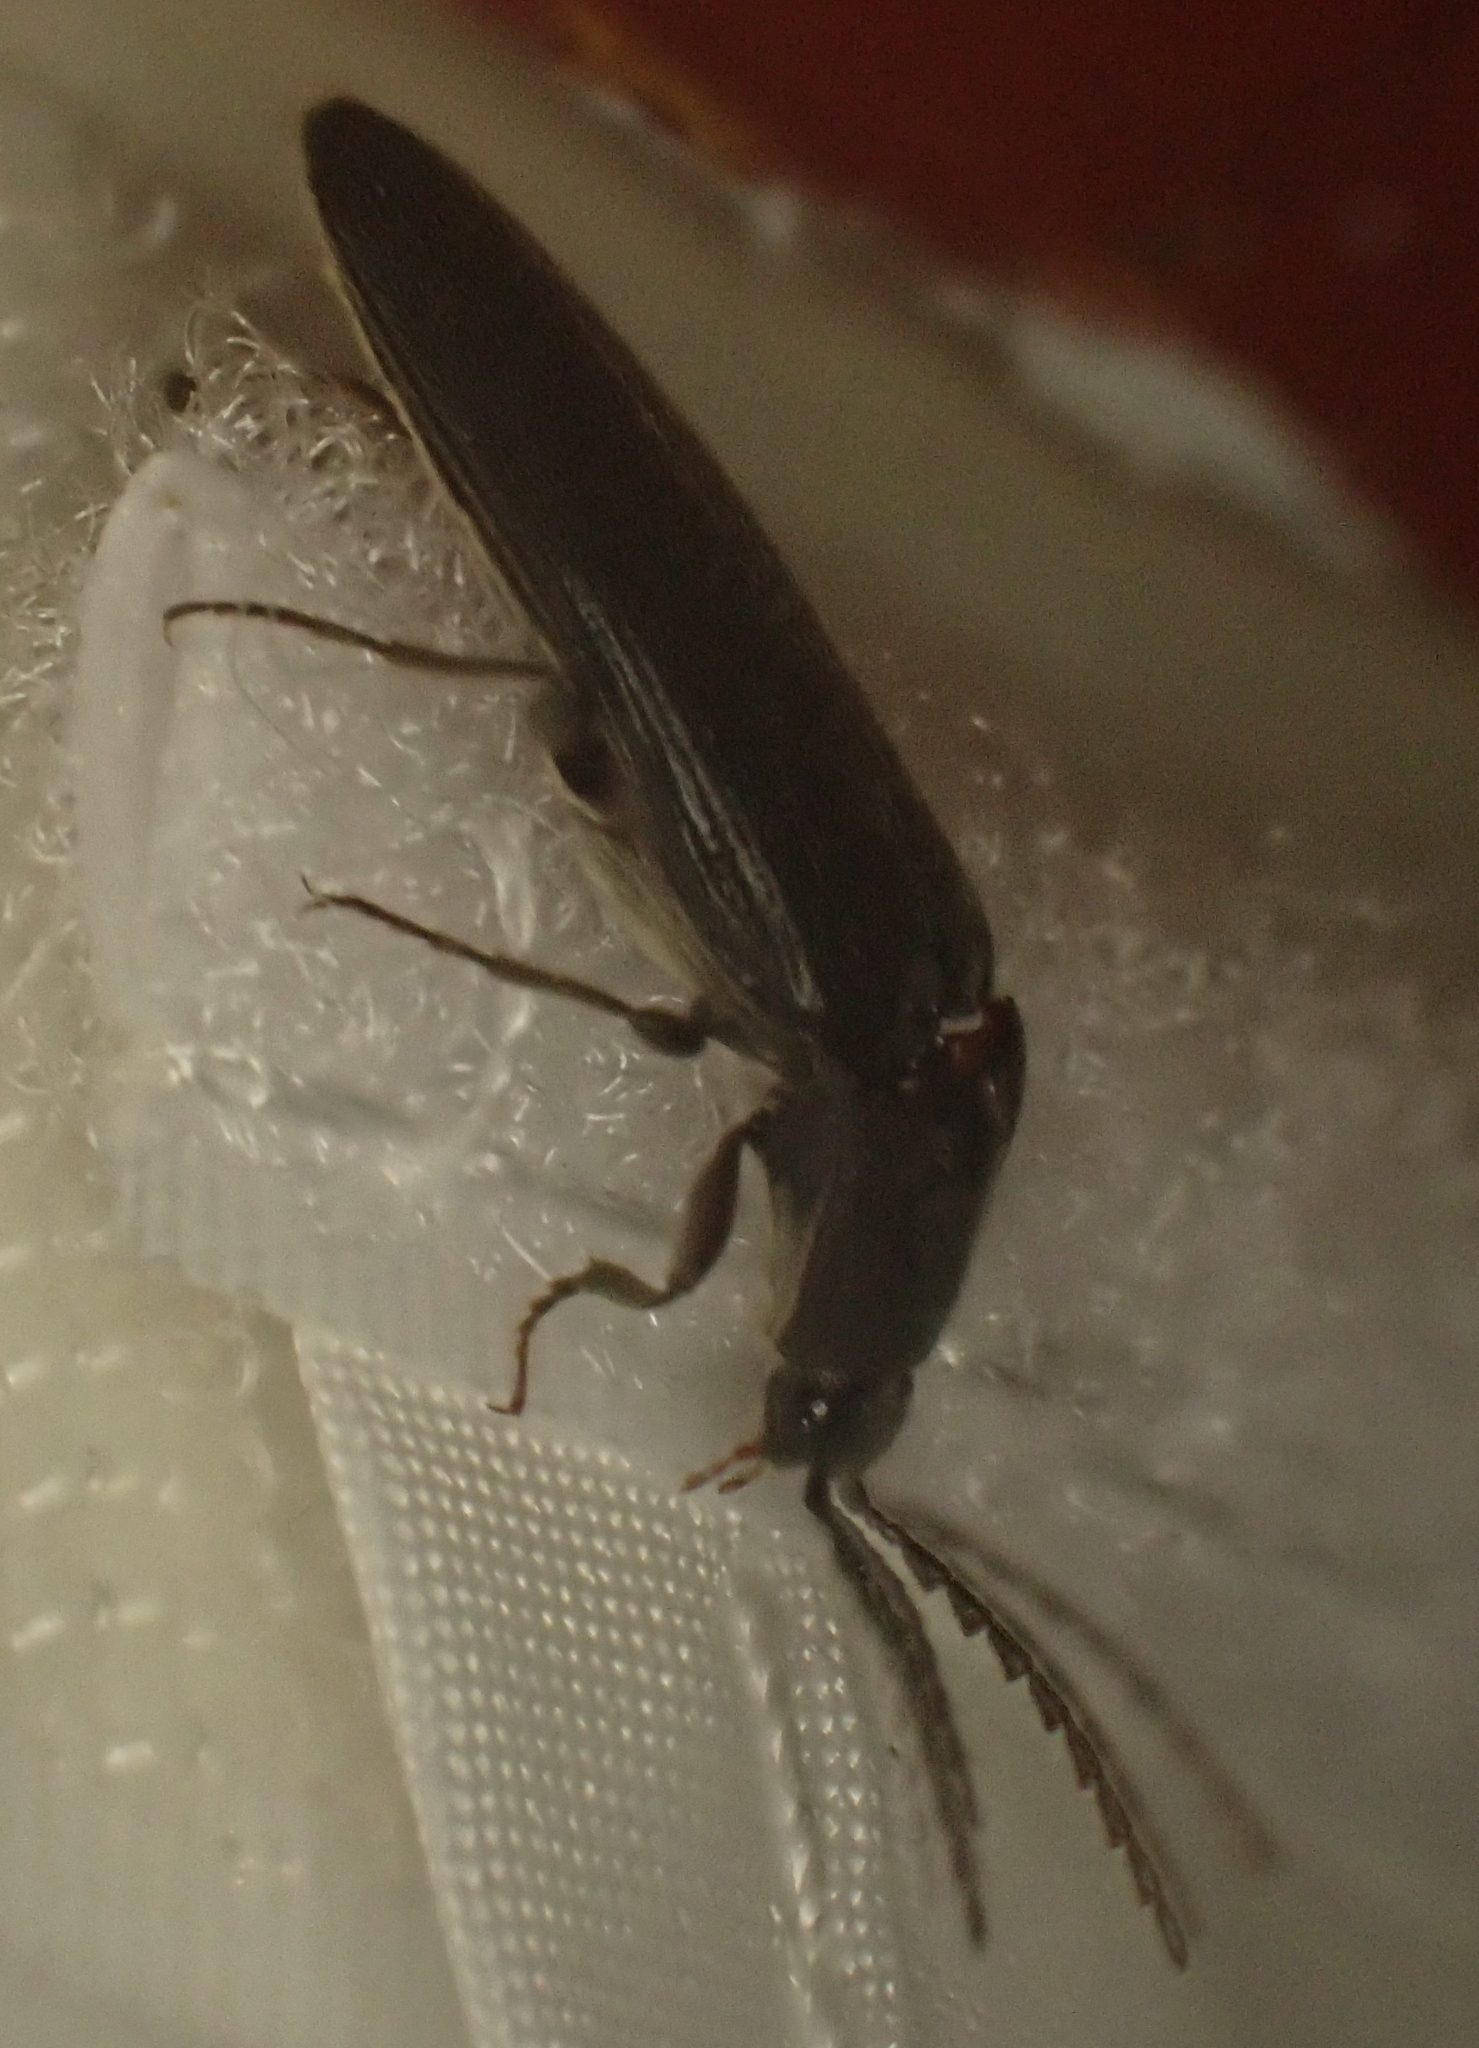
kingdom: Animalia
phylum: Arthropoda
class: Insecta
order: Coleoptera
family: Elateridae
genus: Melanotus
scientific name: Melanotus castanipes
